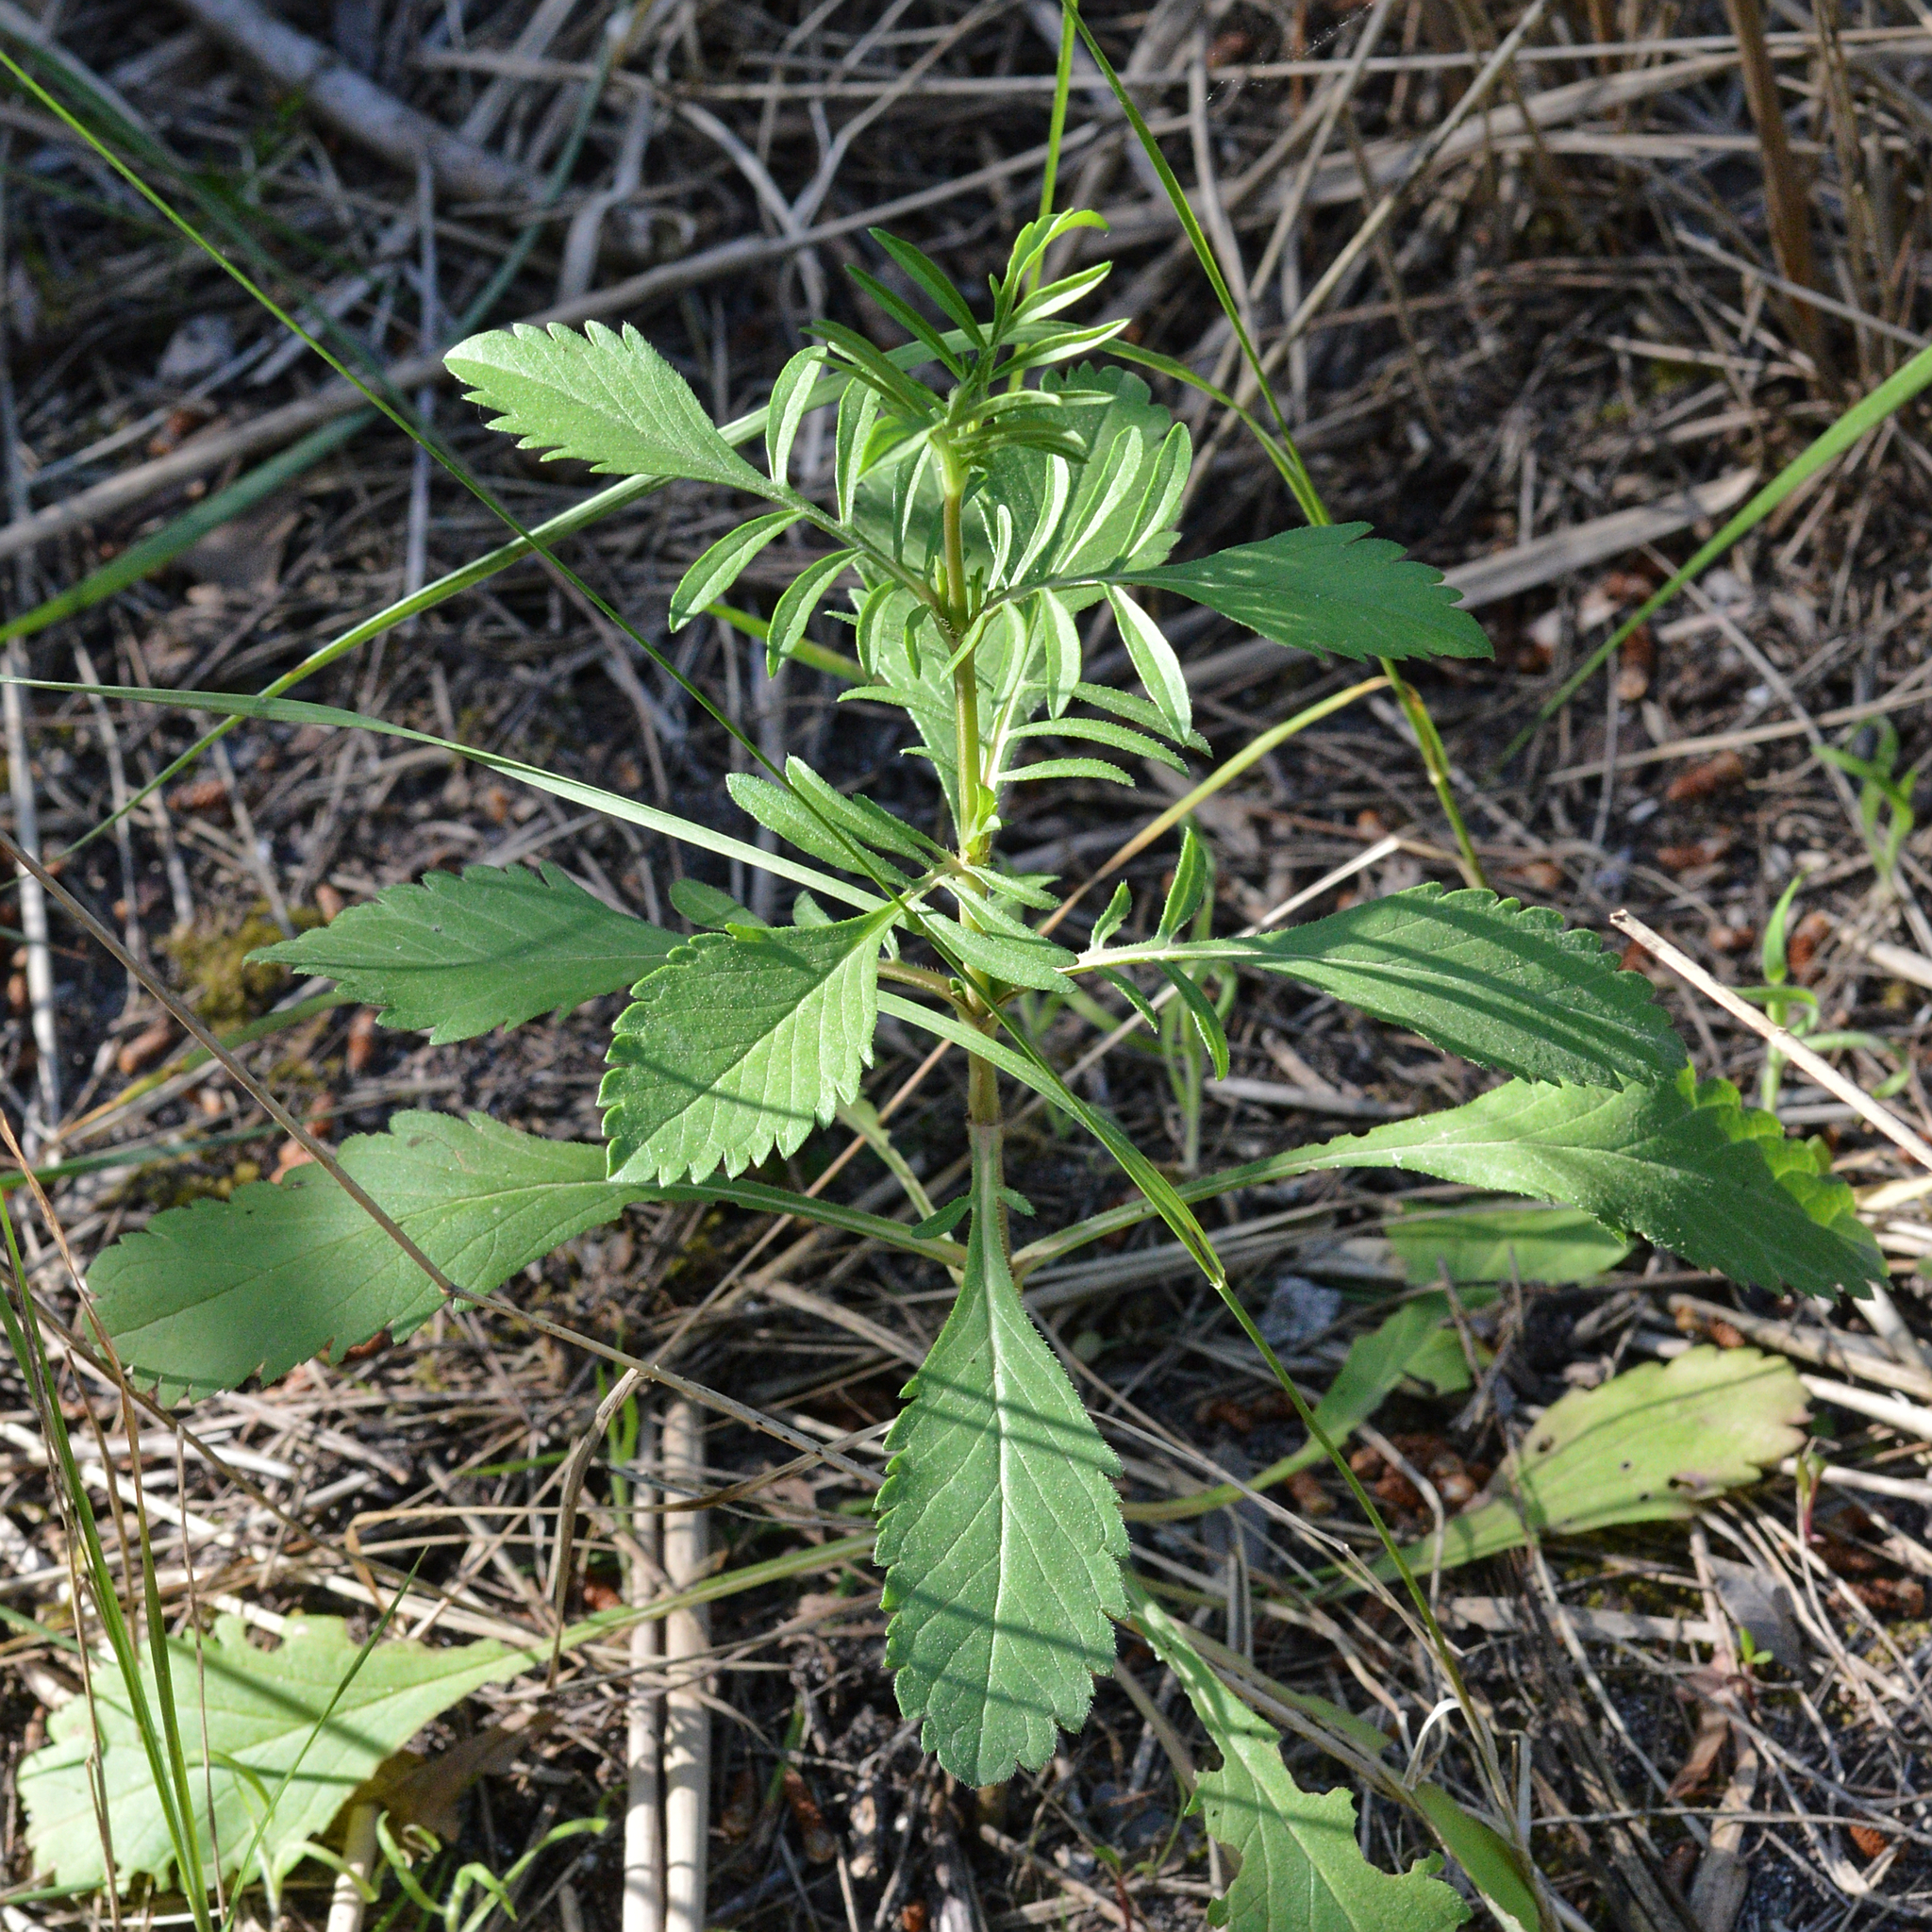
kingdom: Plantae
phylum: Tracheophyta
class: Magnoliopsida
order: Dipsacales
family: Caprifoliaceae
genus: Sixalix
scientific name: Sixalix atropurpurea
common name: Sweet scabious
